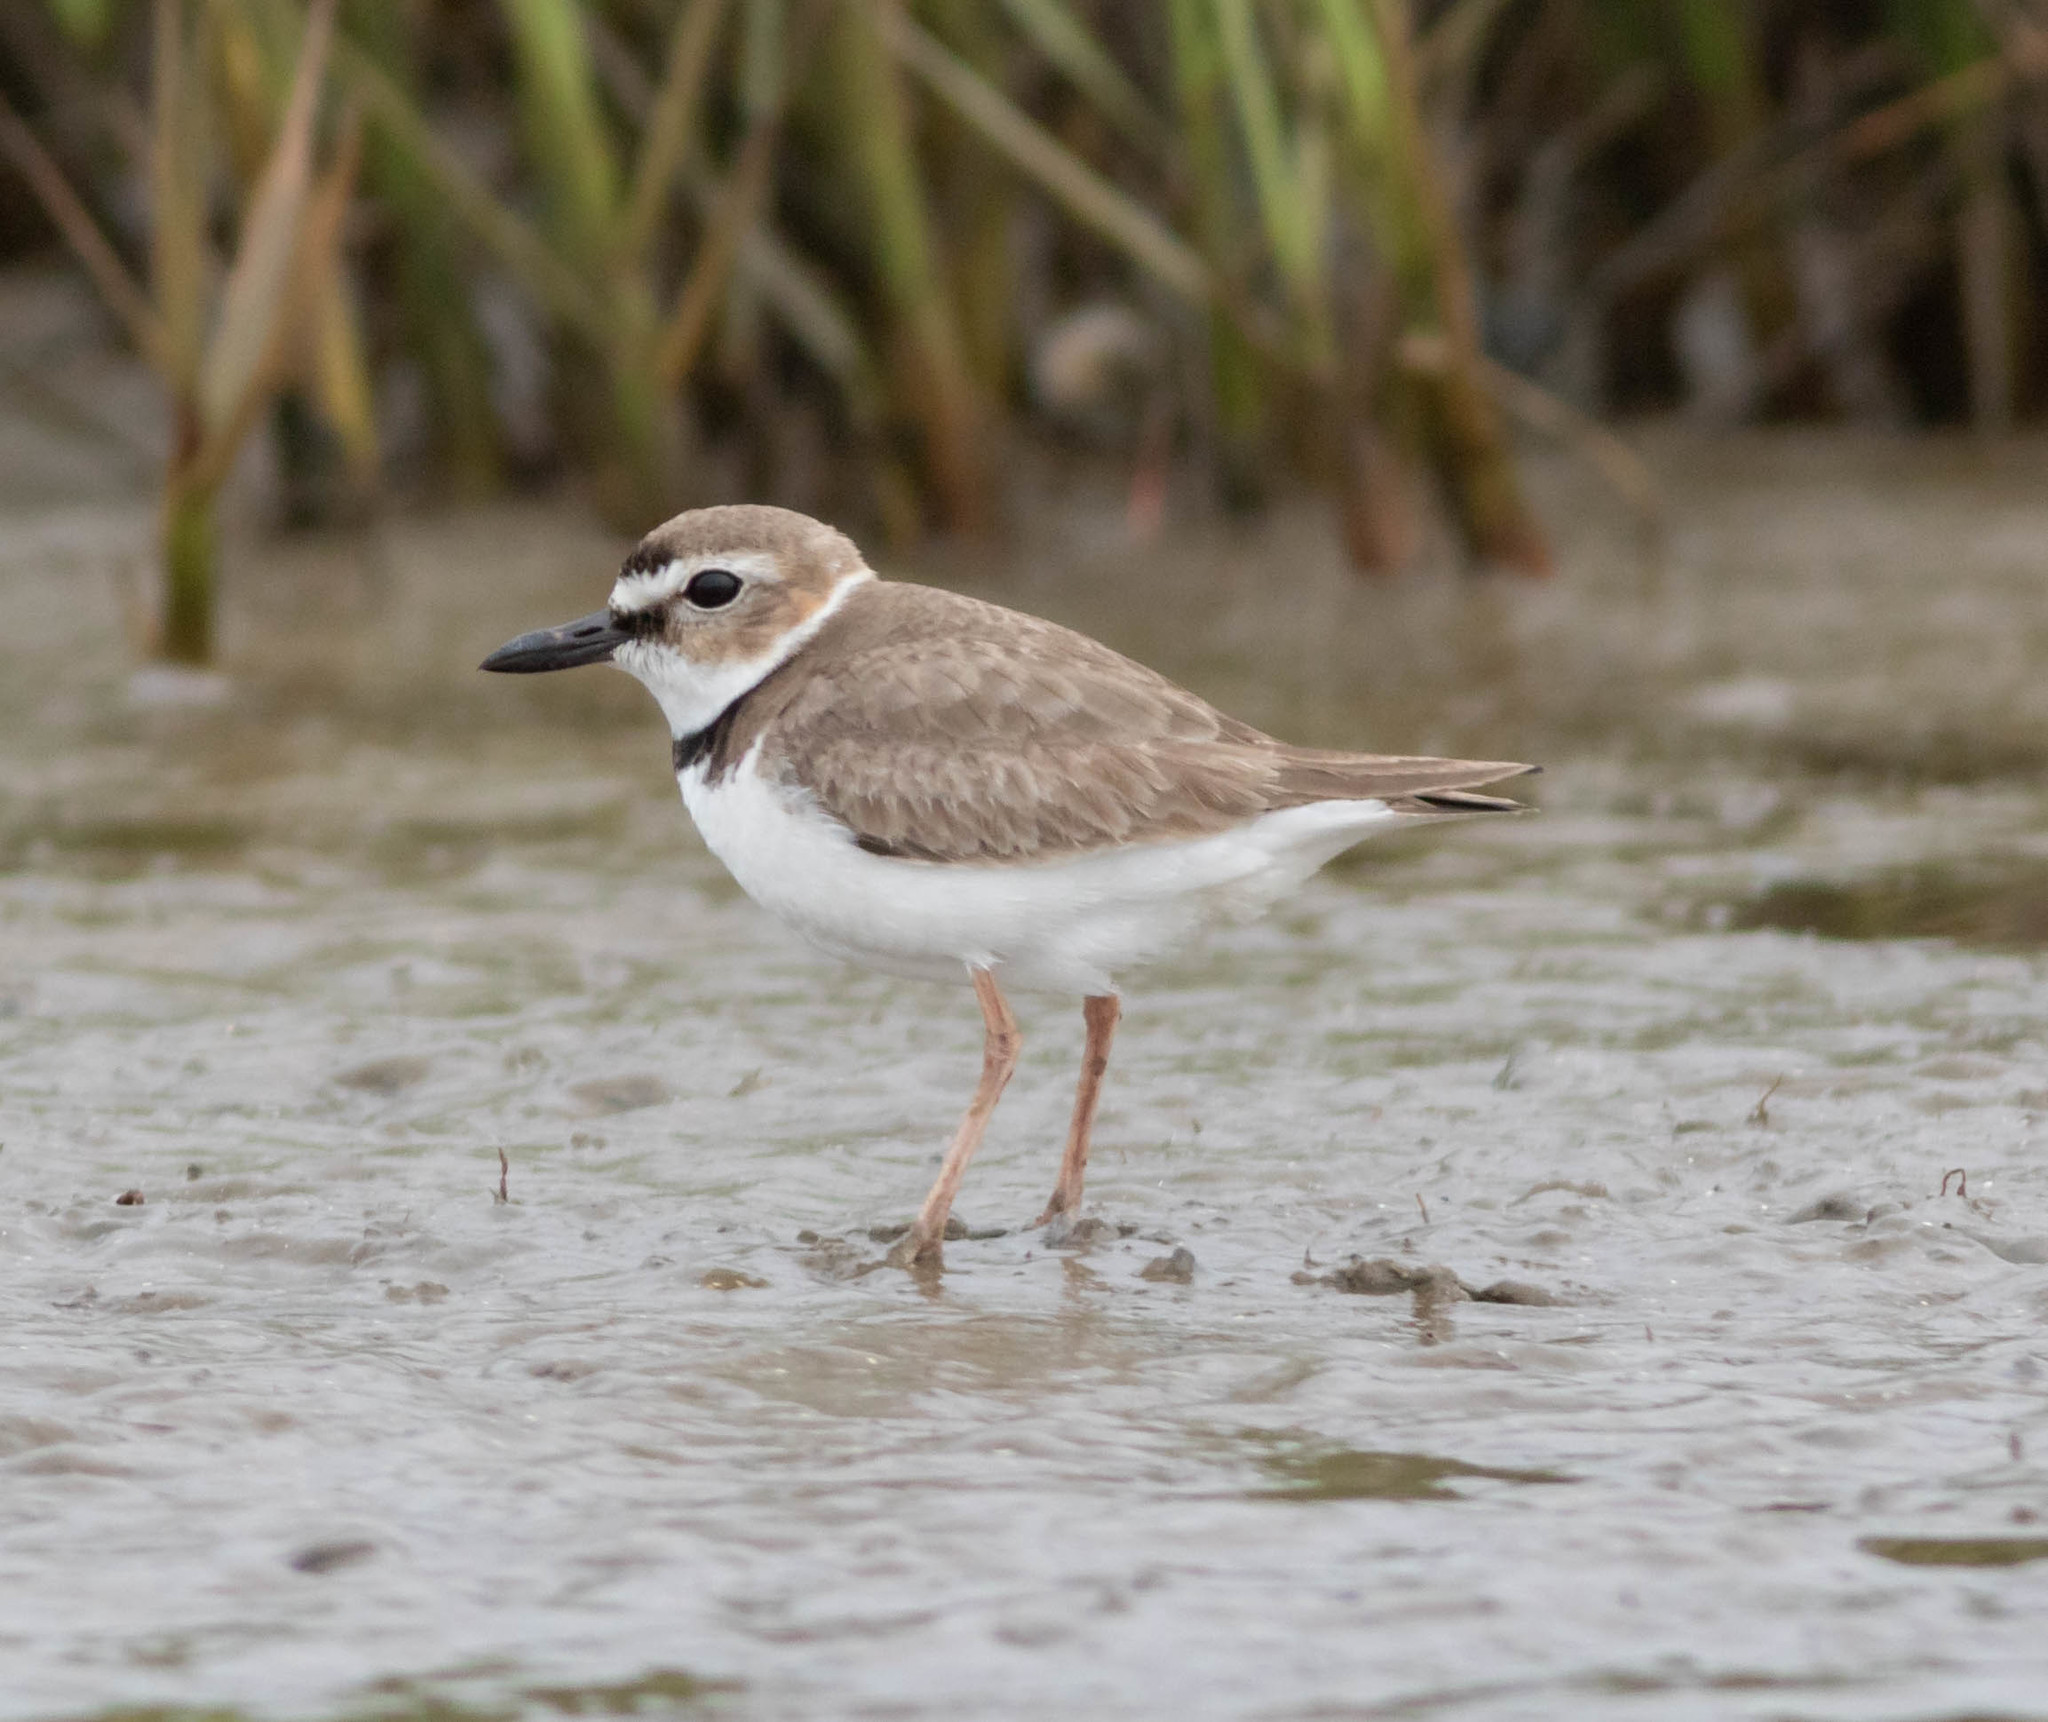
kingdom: Animalia
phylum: Chordata
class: Aves
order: Charadriiformes
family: Charadriidae
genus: Anarhynchus
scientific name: Anarhynchus
